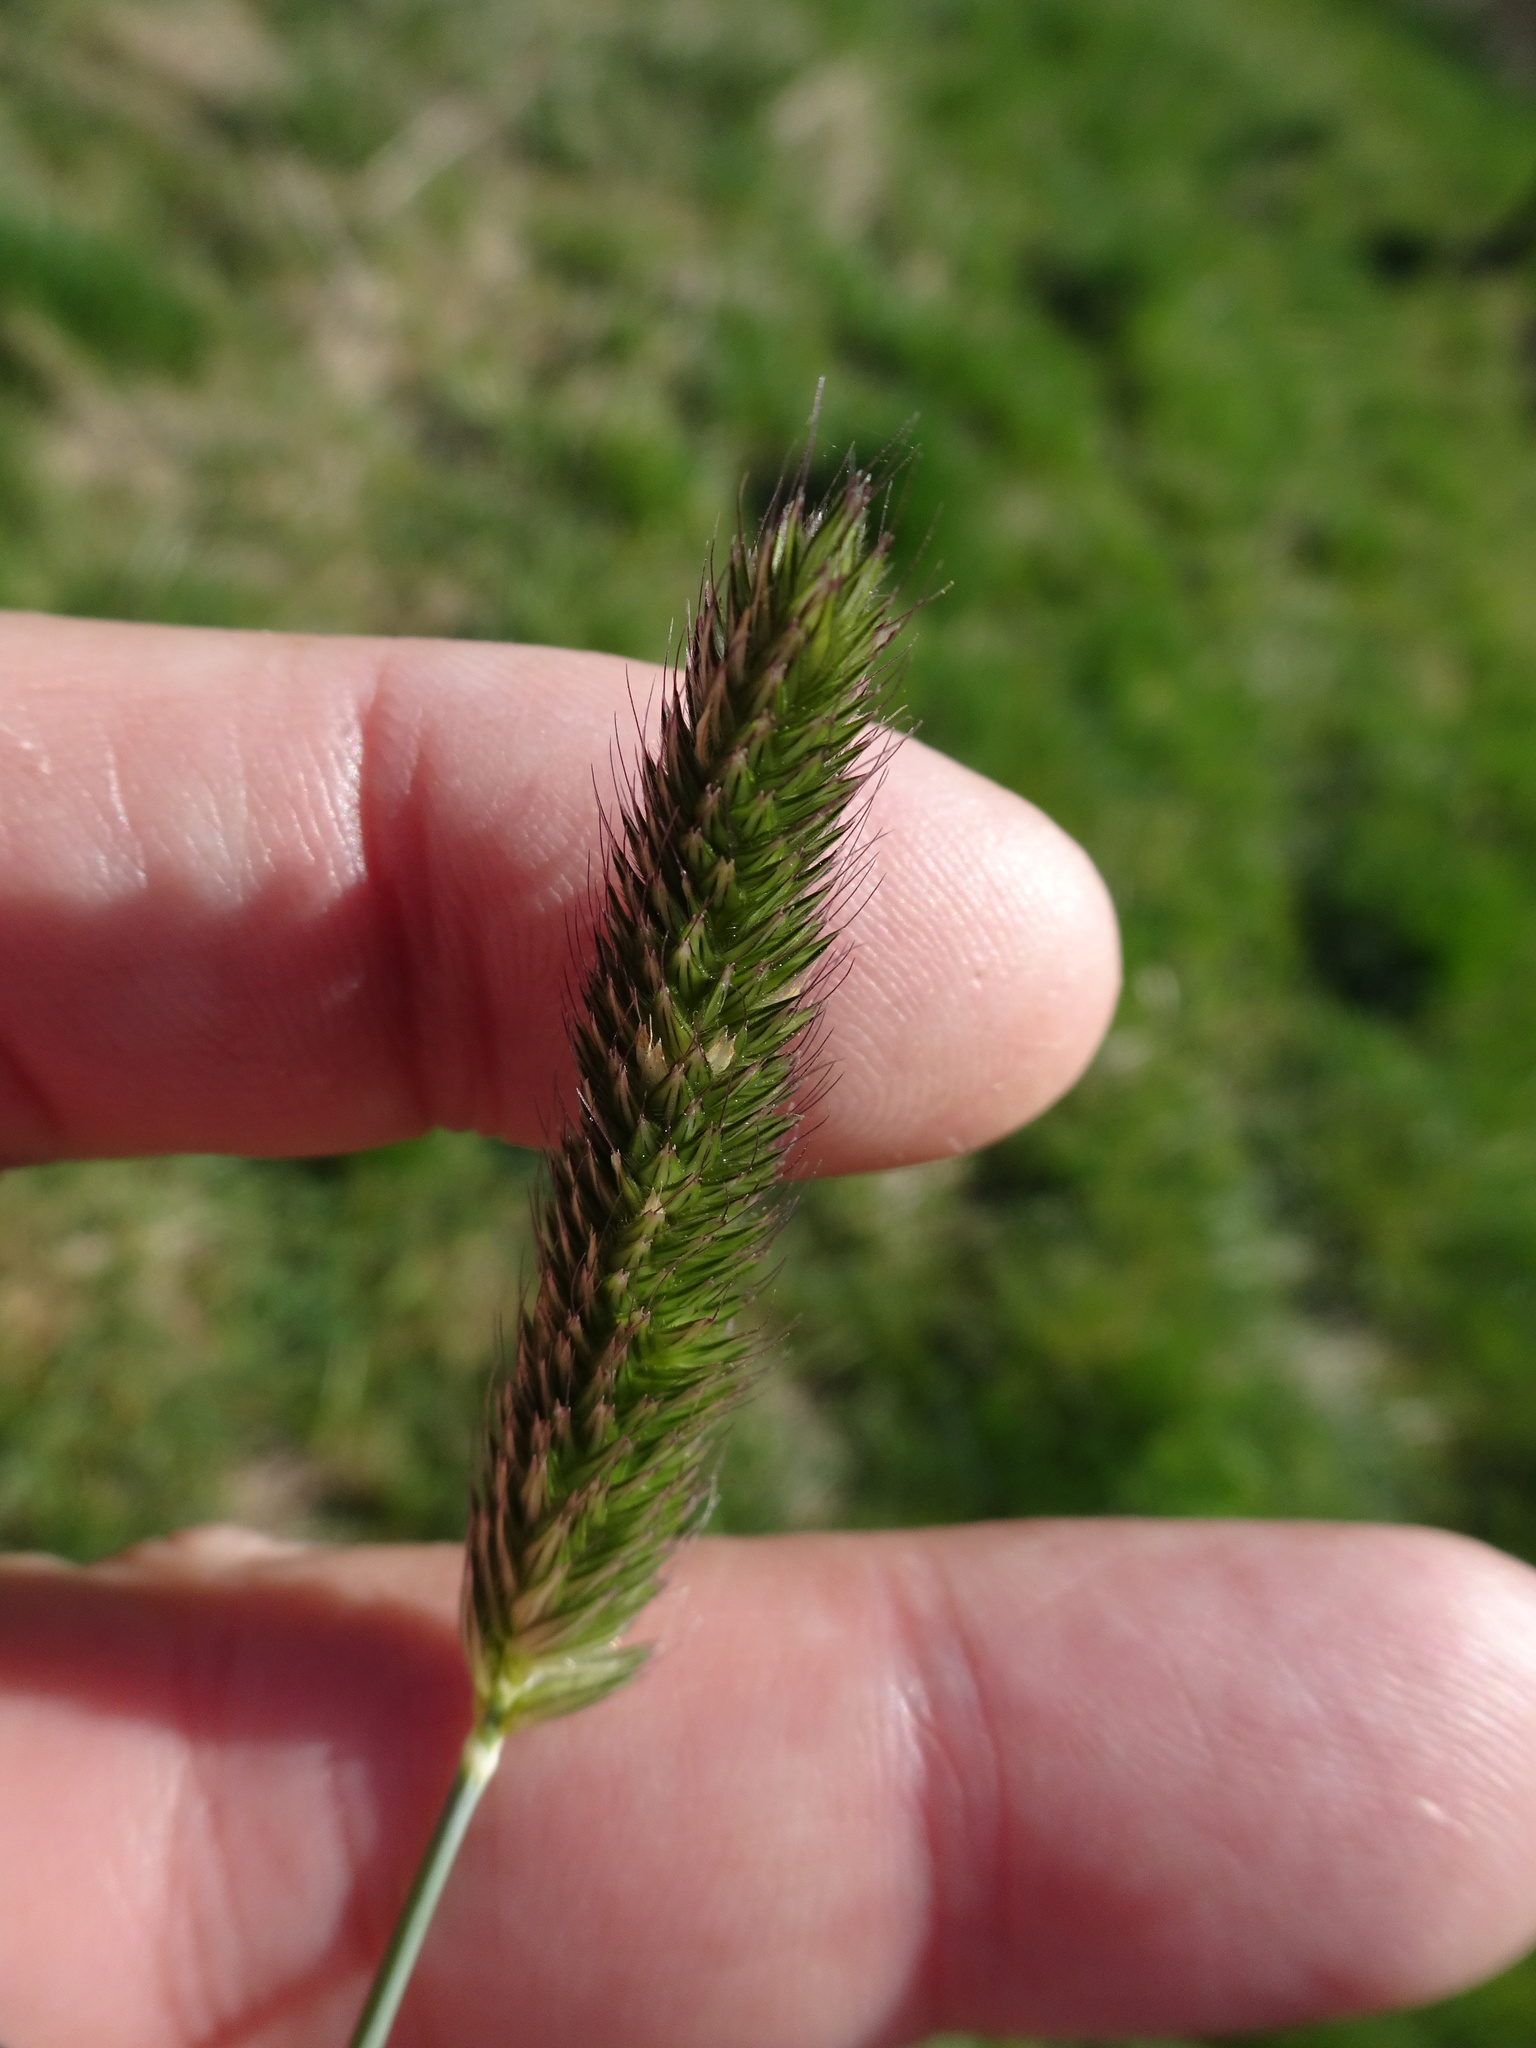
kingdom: Plantae
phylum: Tracheophyta
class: Liliopsida
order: Poales
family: Poaceae
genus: Alopecurus
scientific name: Alopecurus pratensis
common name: Meadow foxtail
